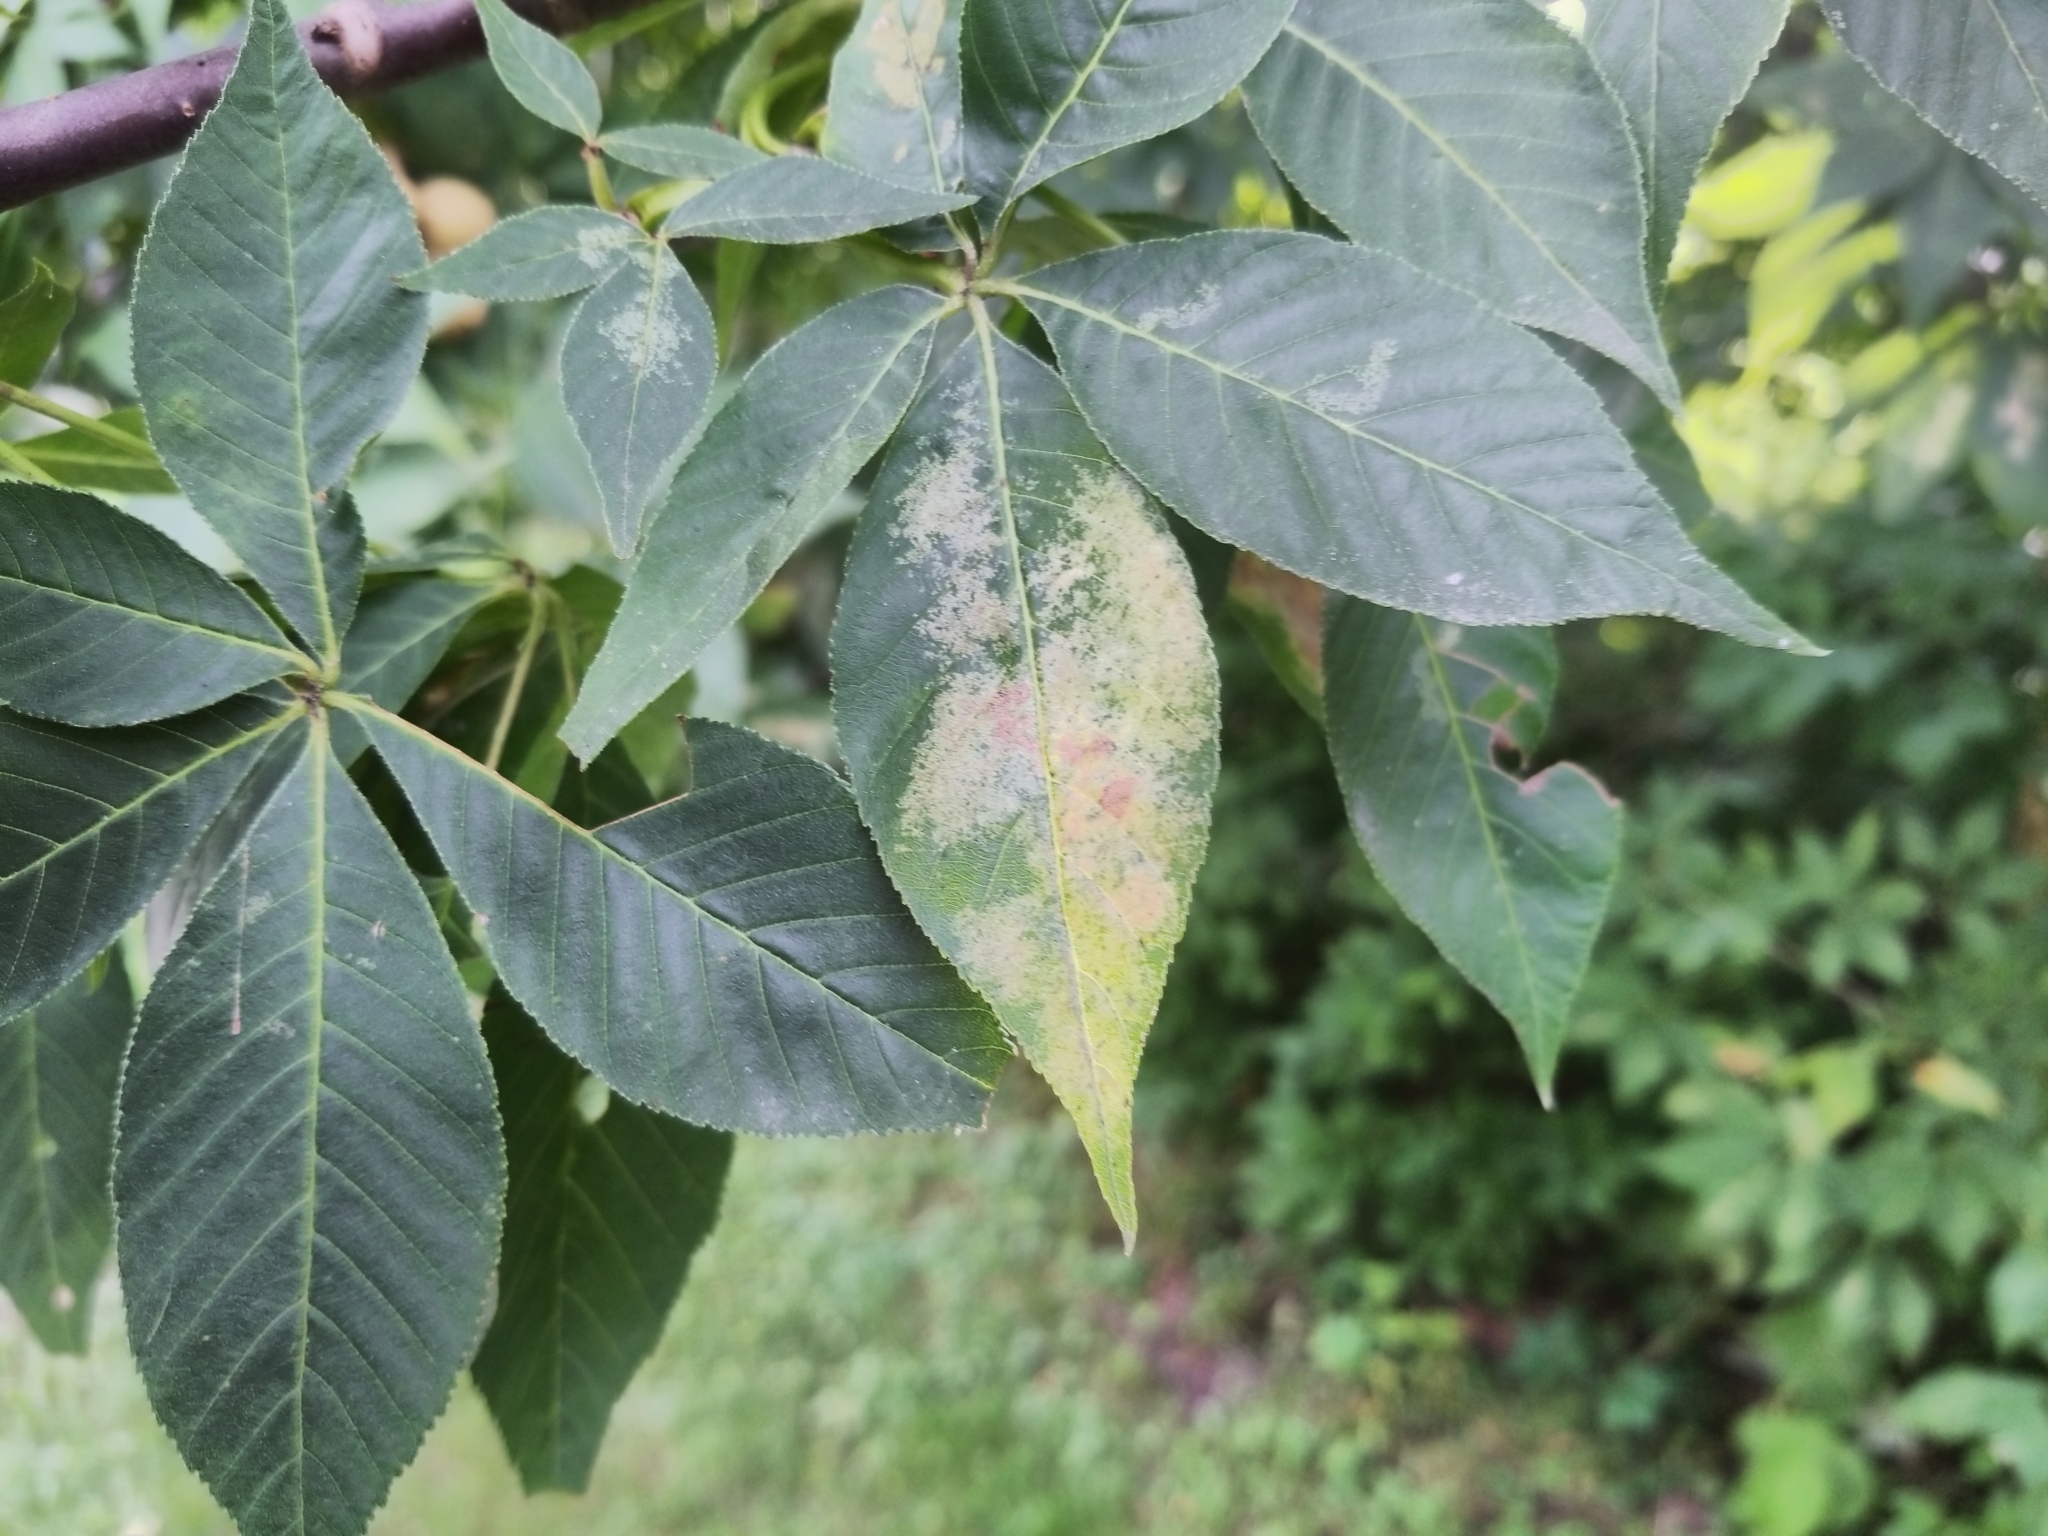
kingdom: Plantae
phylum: Tracheophyta
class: Magnoliopsida
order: Sapindales
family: Sapindaceae
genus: Aesculus
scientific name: Aesculus glabra
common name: Ohio buckeye
